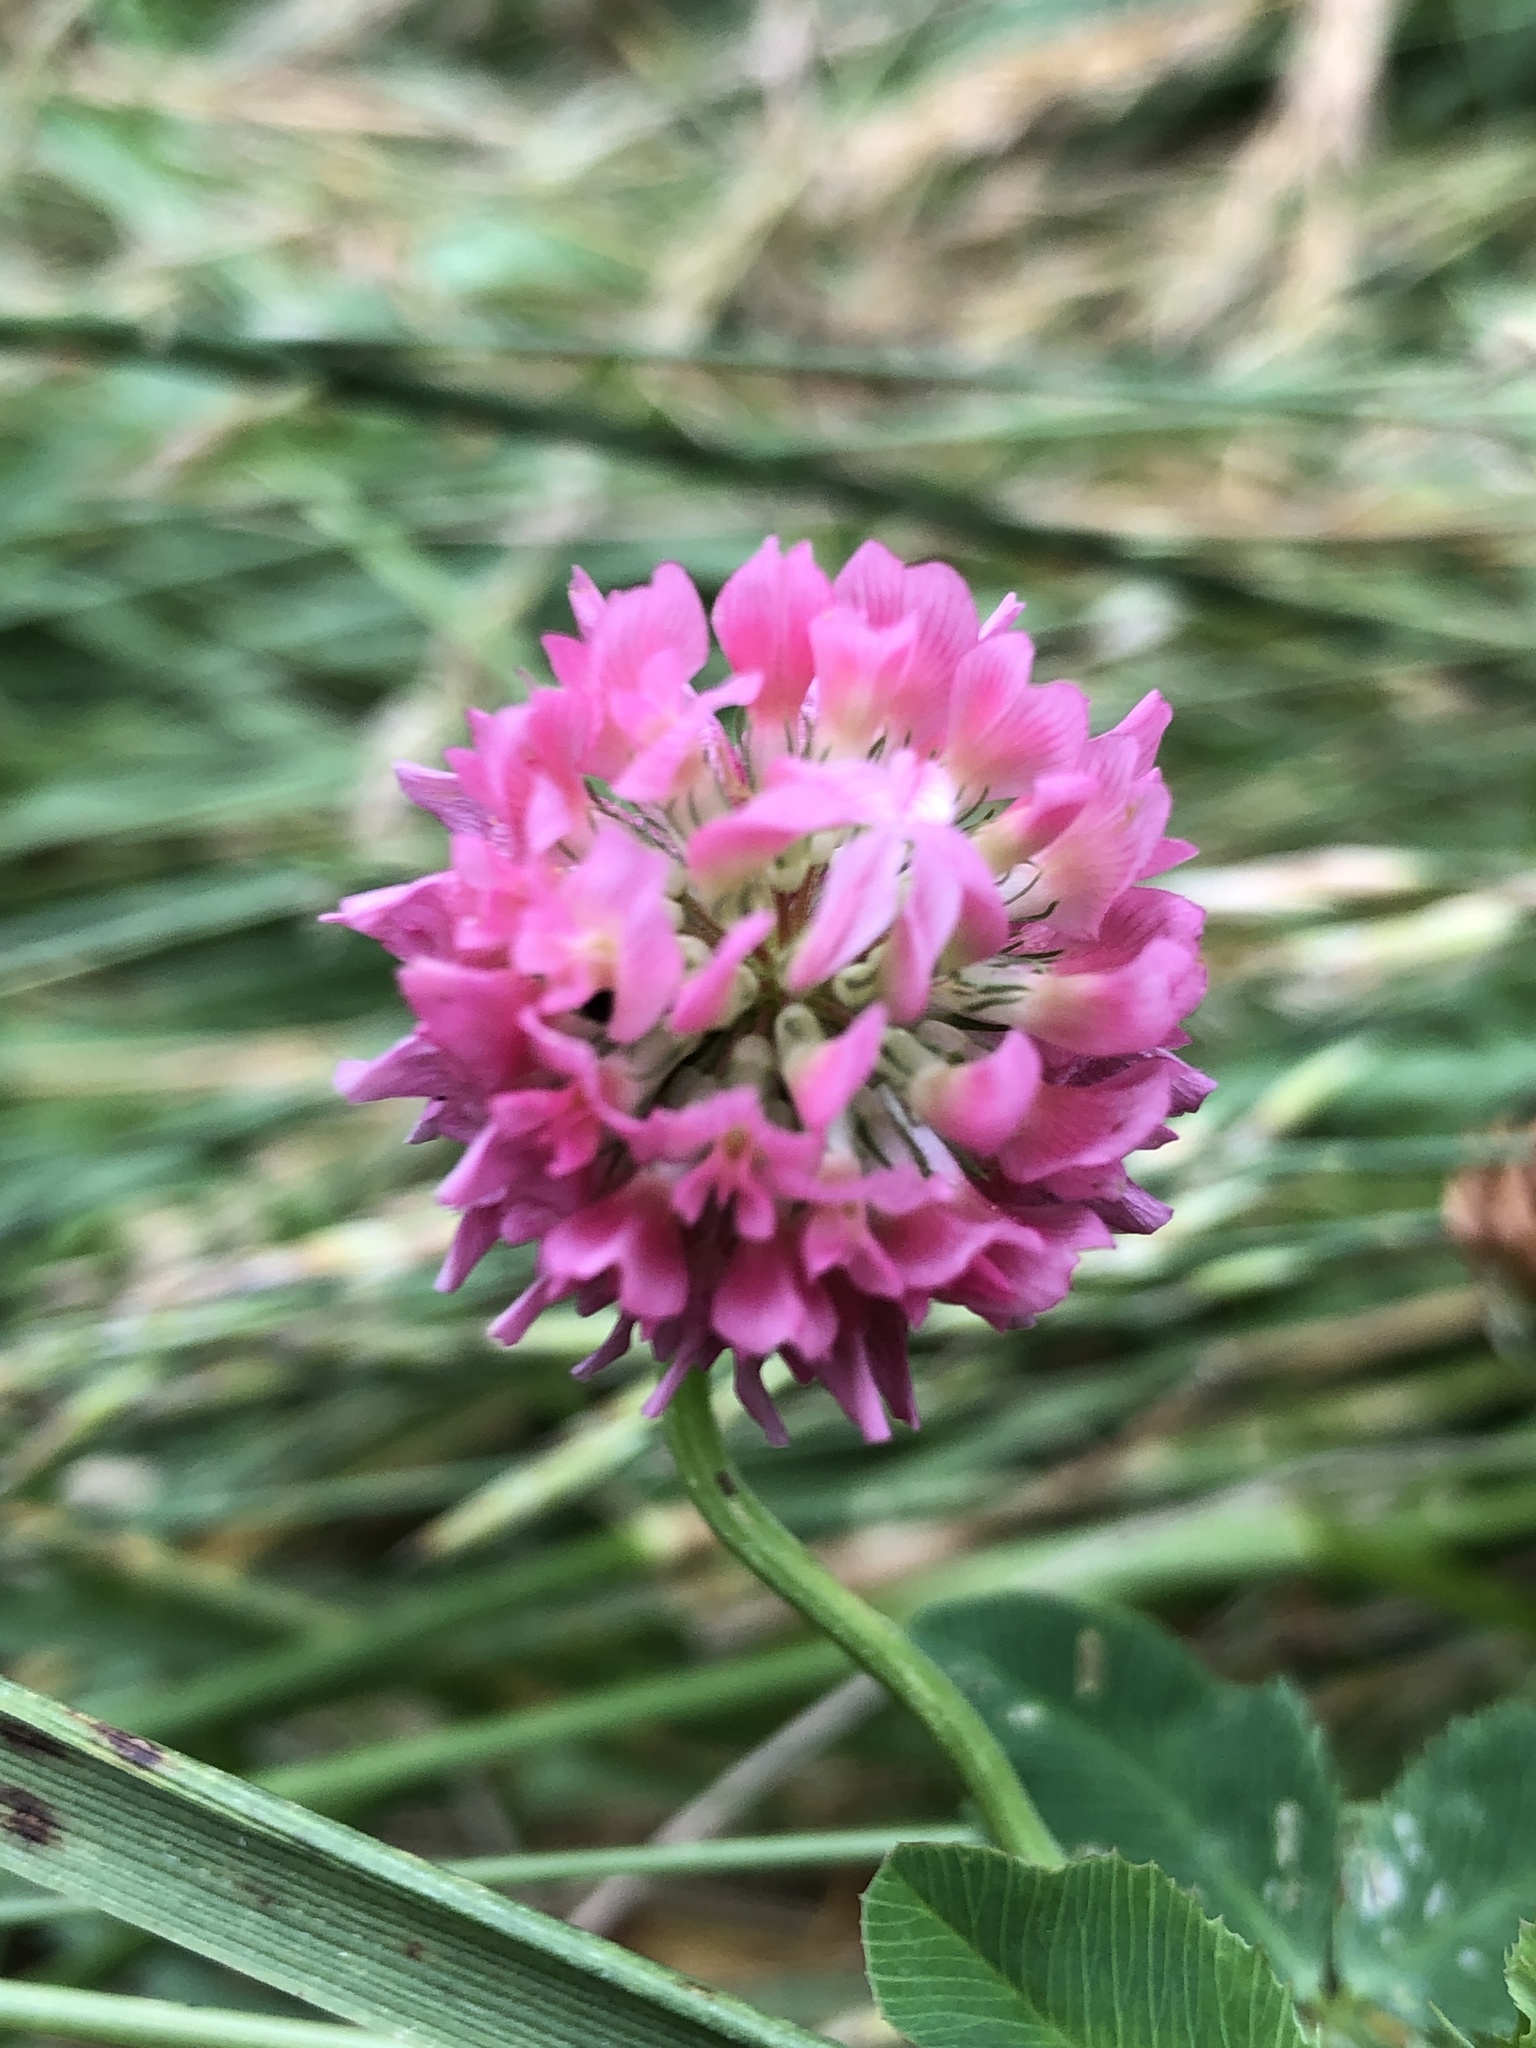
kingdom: Plantae
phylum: Tracheophyta
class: Magnoliopsida
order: Fabales
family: Fabaceae
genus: Trifolium
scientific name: Trifolium hybridum
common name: Alsike clover
